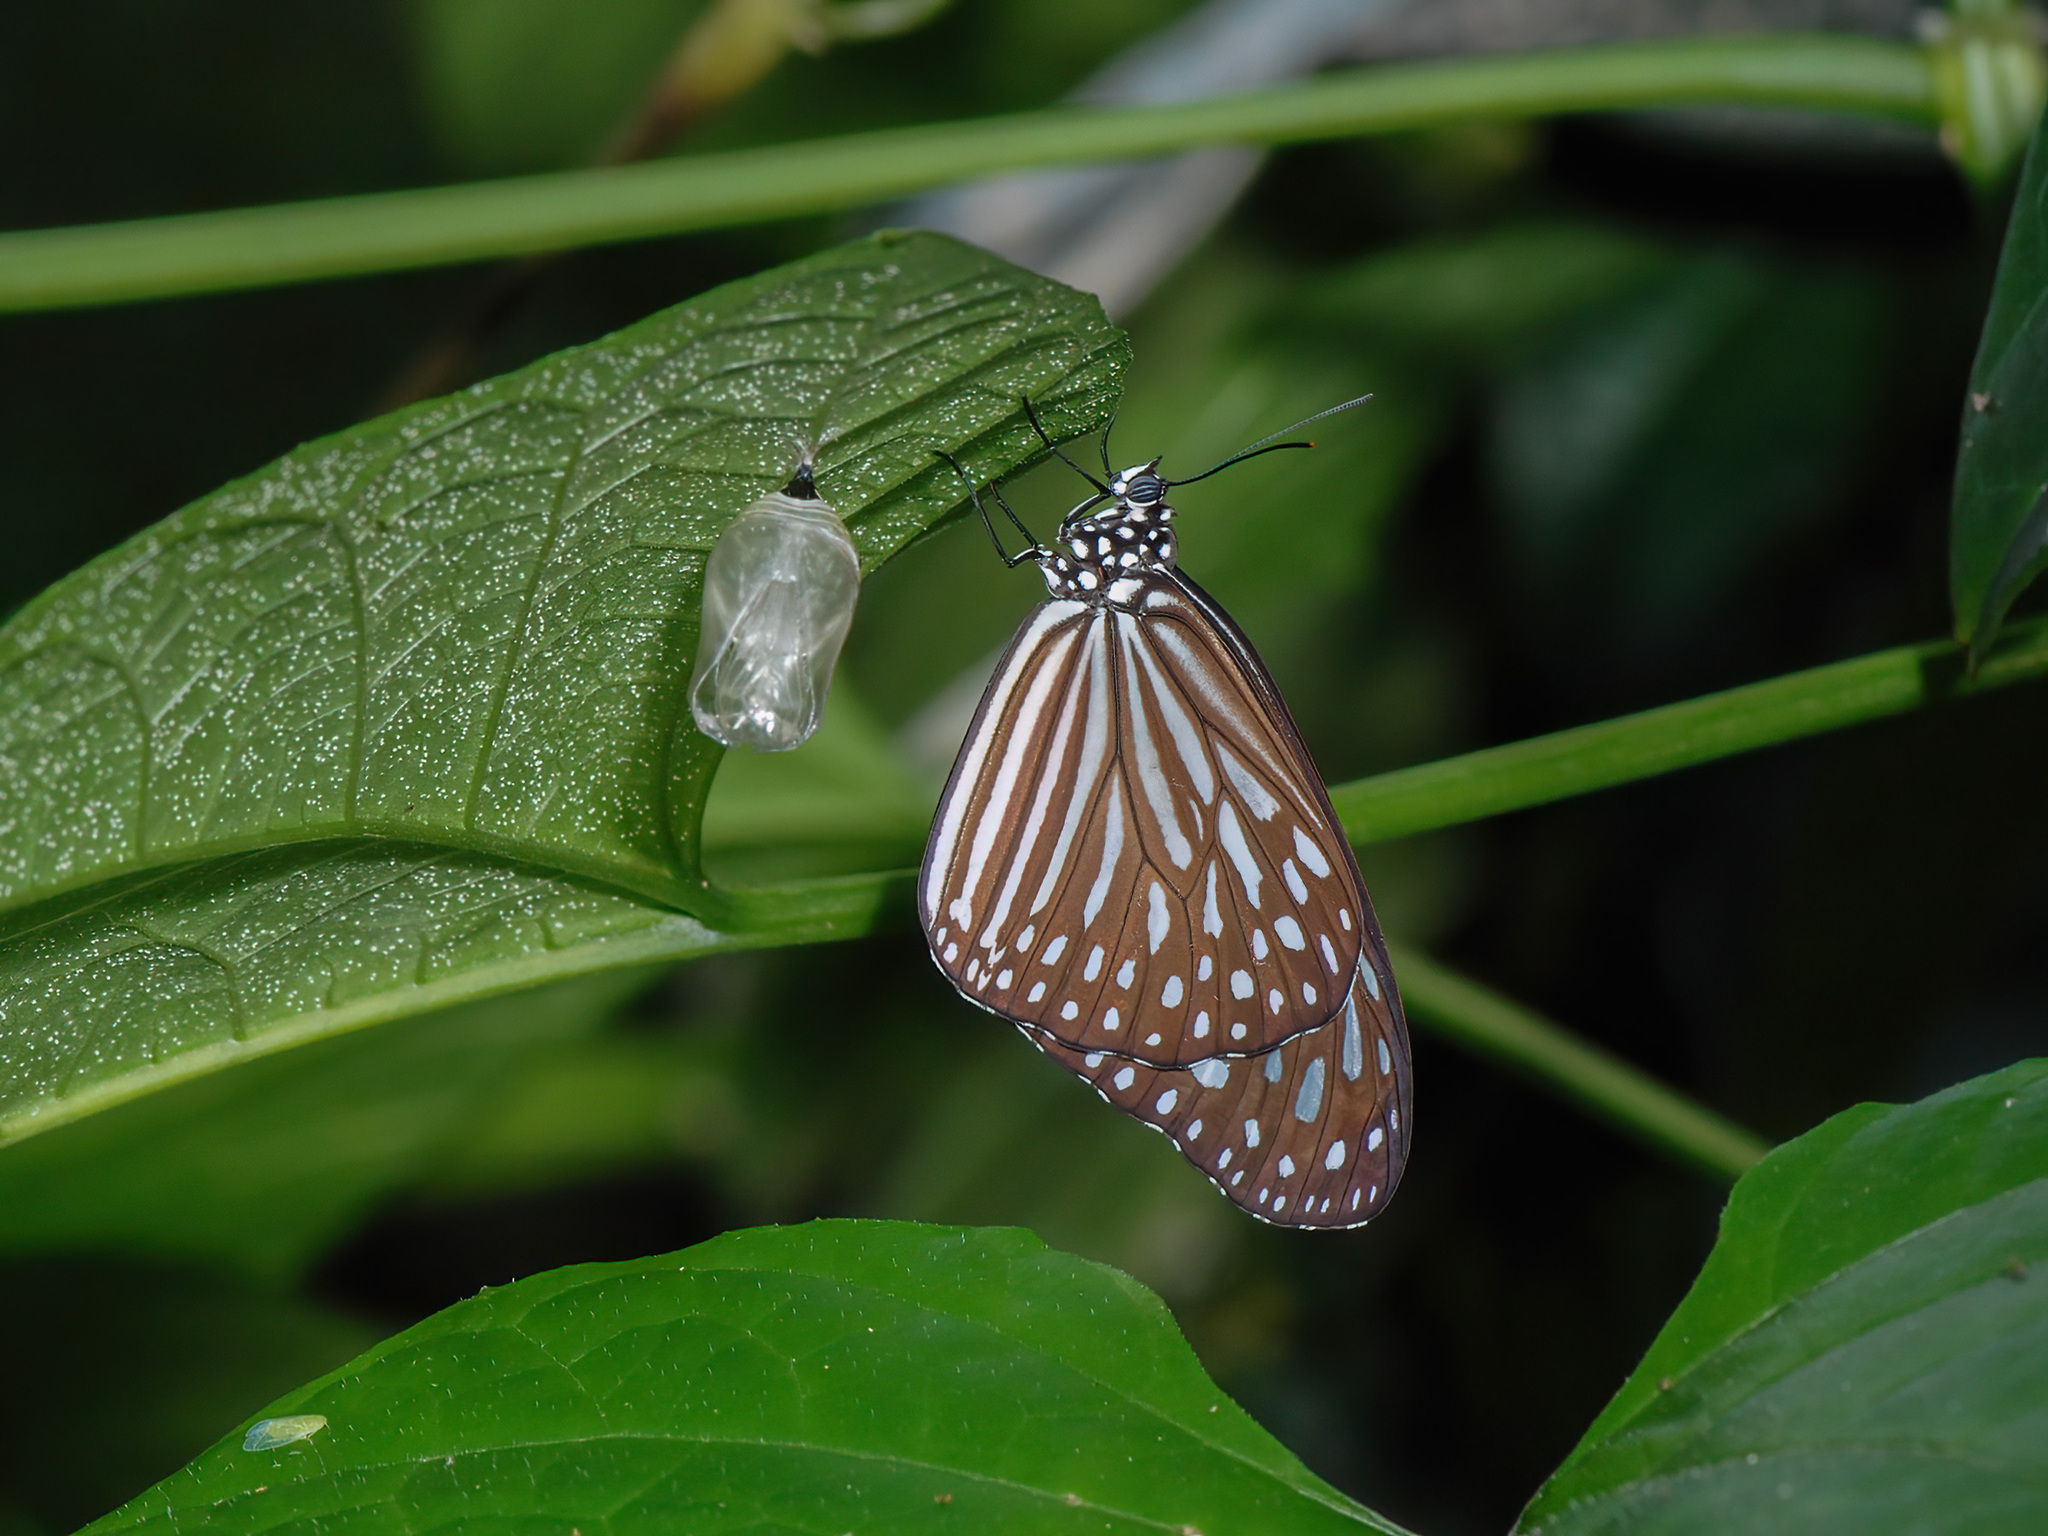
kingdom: Animalia
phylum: Arthropoda
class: Insecta
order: Lepidoptera
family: Nymphalidae
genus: Ideopsis
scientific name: Ideopsis vulgaris
